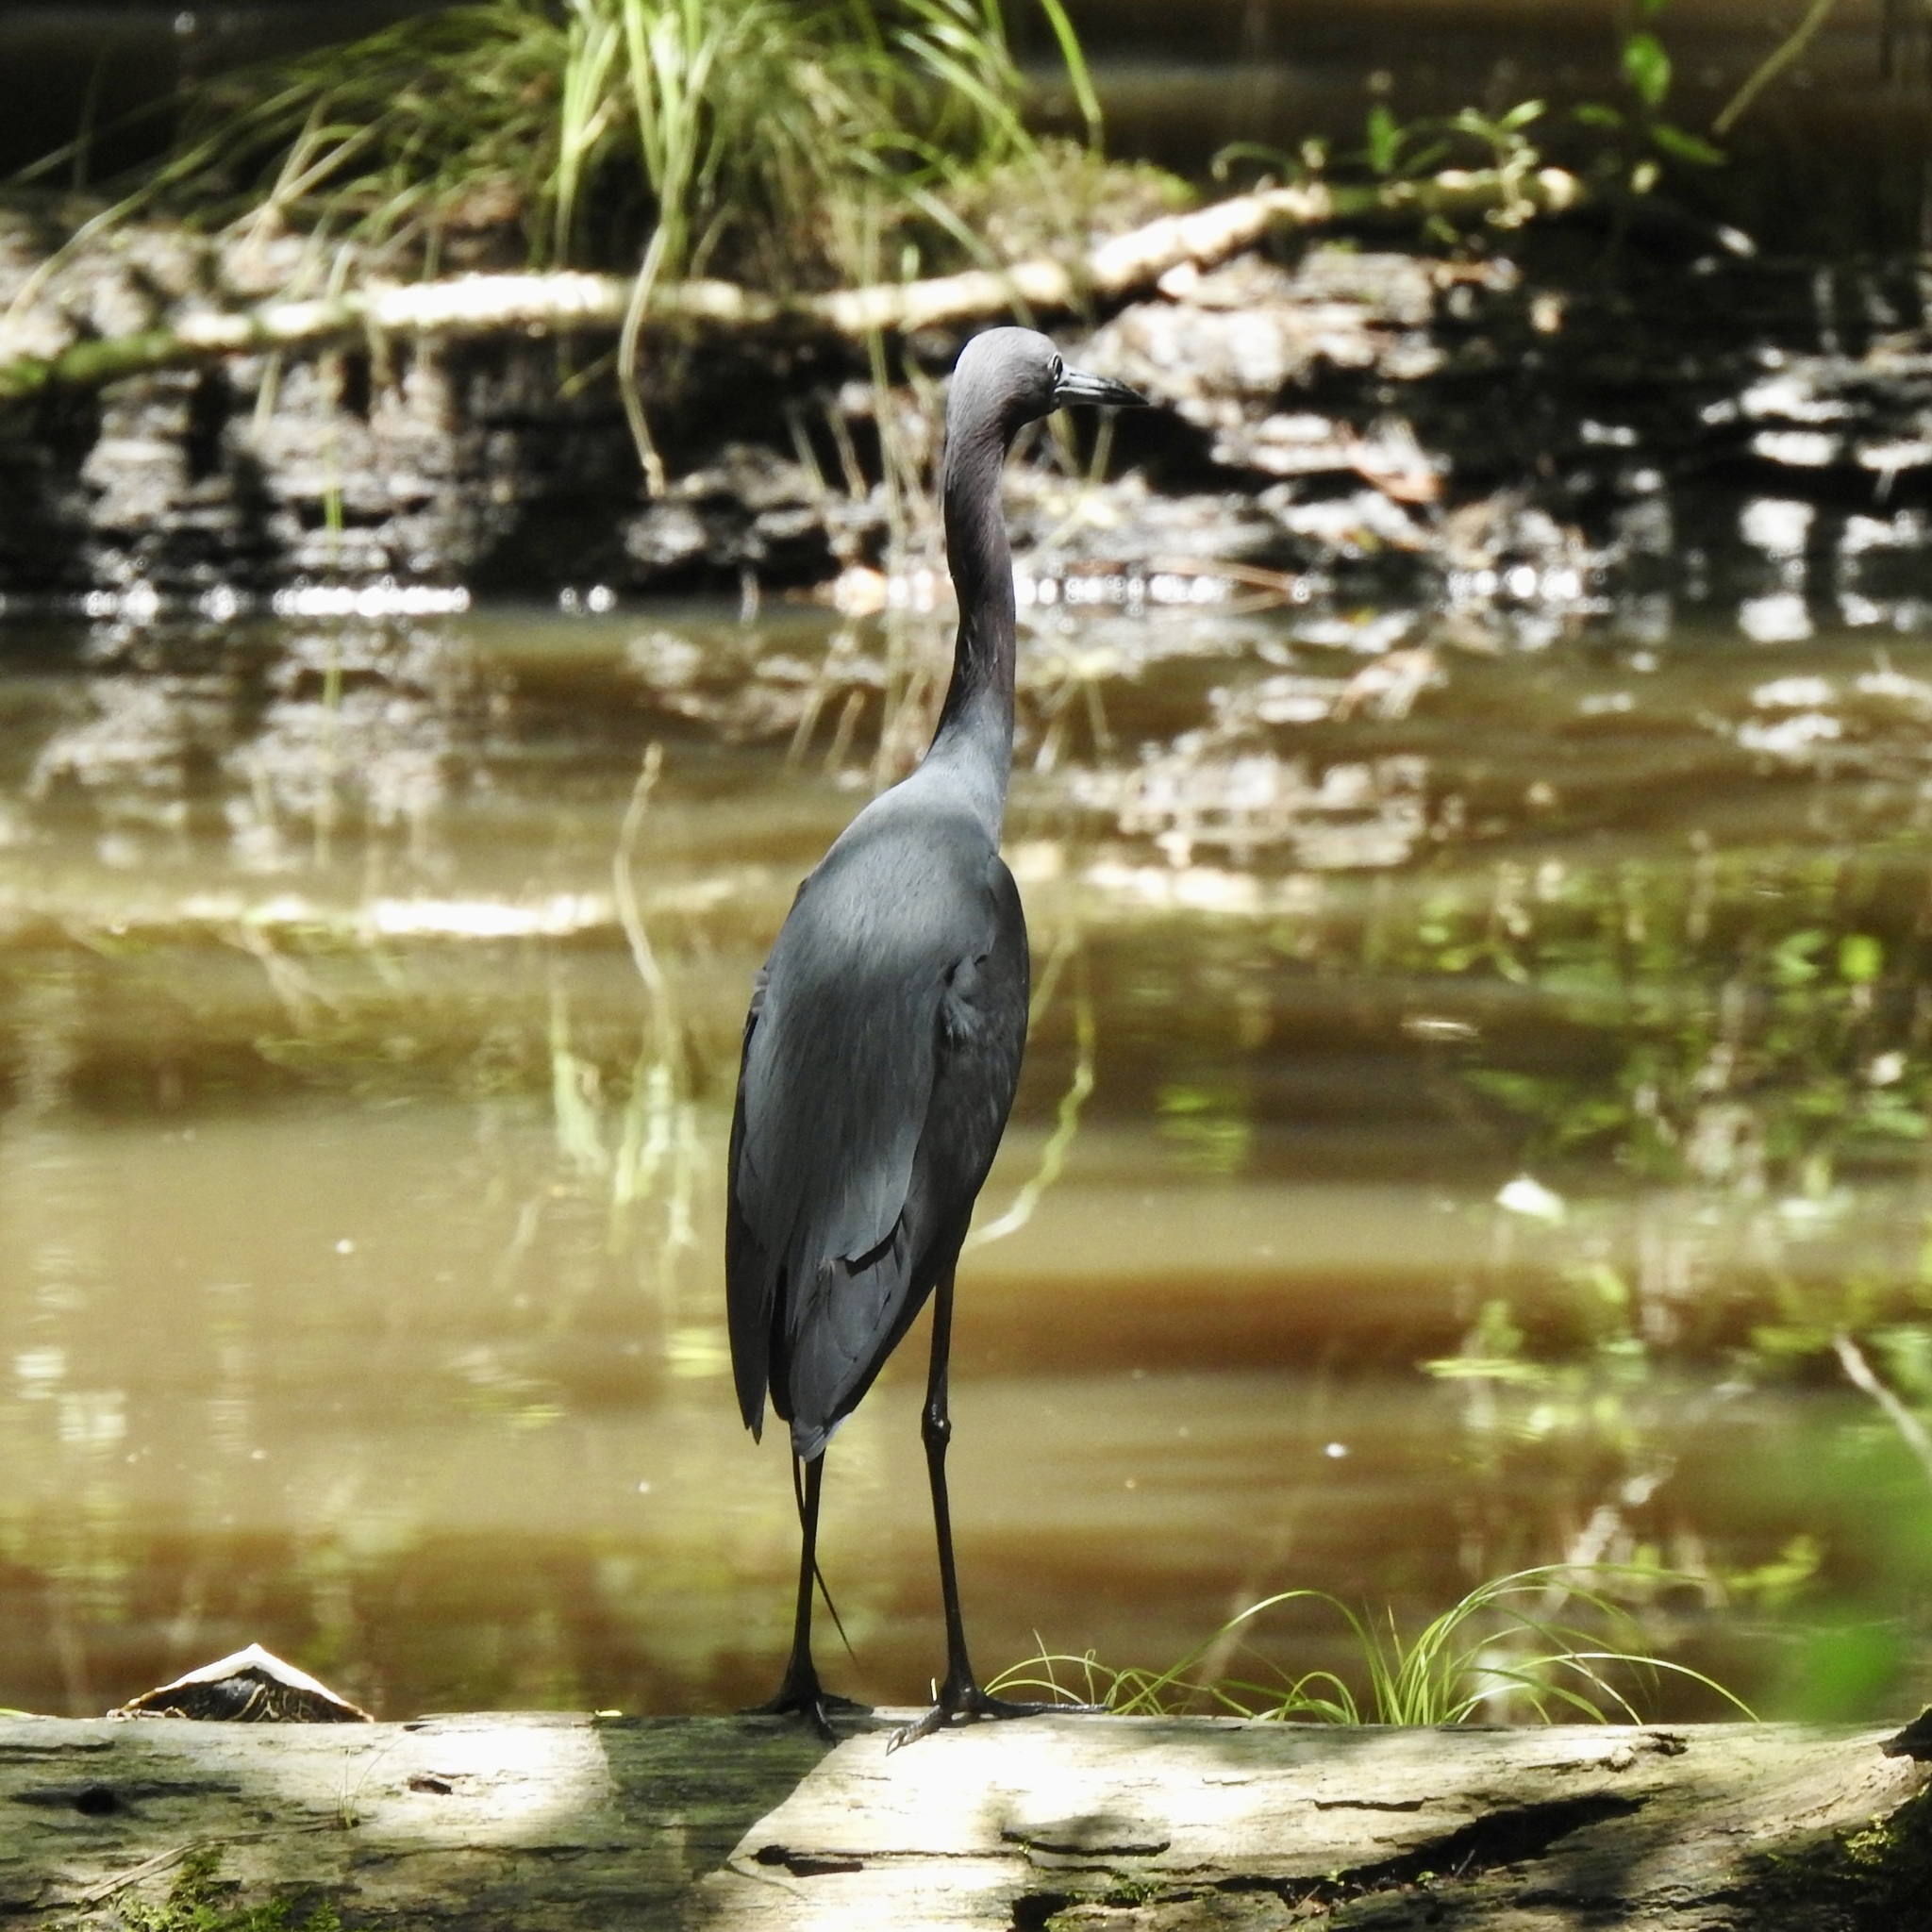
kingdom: Animalia
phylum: Chordata
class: Aves
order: Pelecaniformes
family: Ardeidae
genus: Egretta
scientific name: Egretta caerulea
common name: Little blue heron
